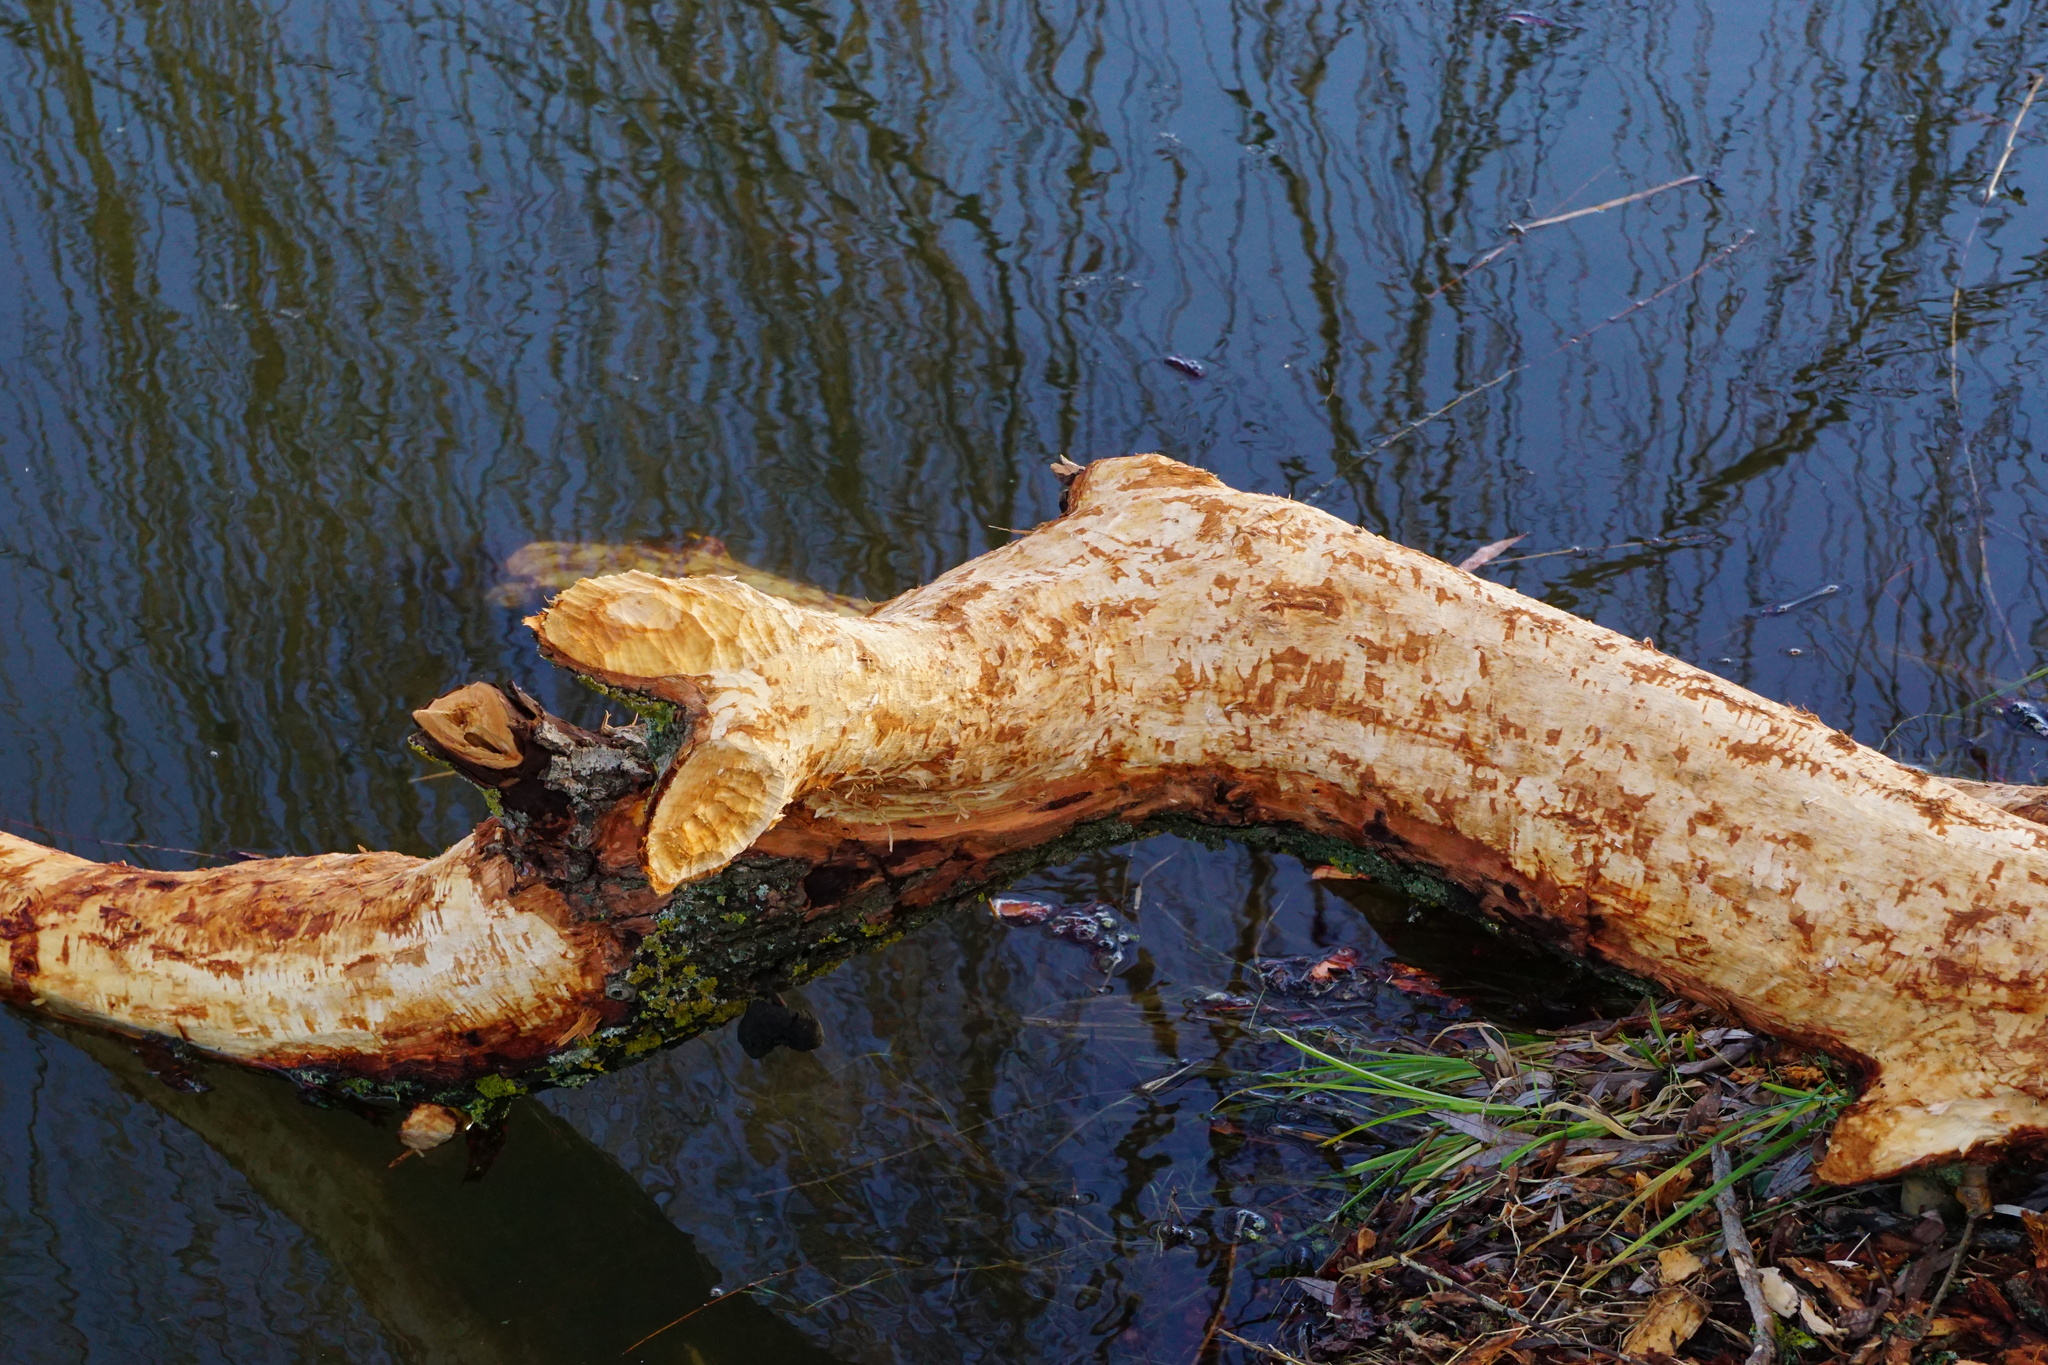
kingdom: Animalia
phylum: Chordata
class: Mammalia
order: Rodentia
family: Castoridae
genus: Castor
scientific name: Castor fiber
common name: Eurasian beaver
